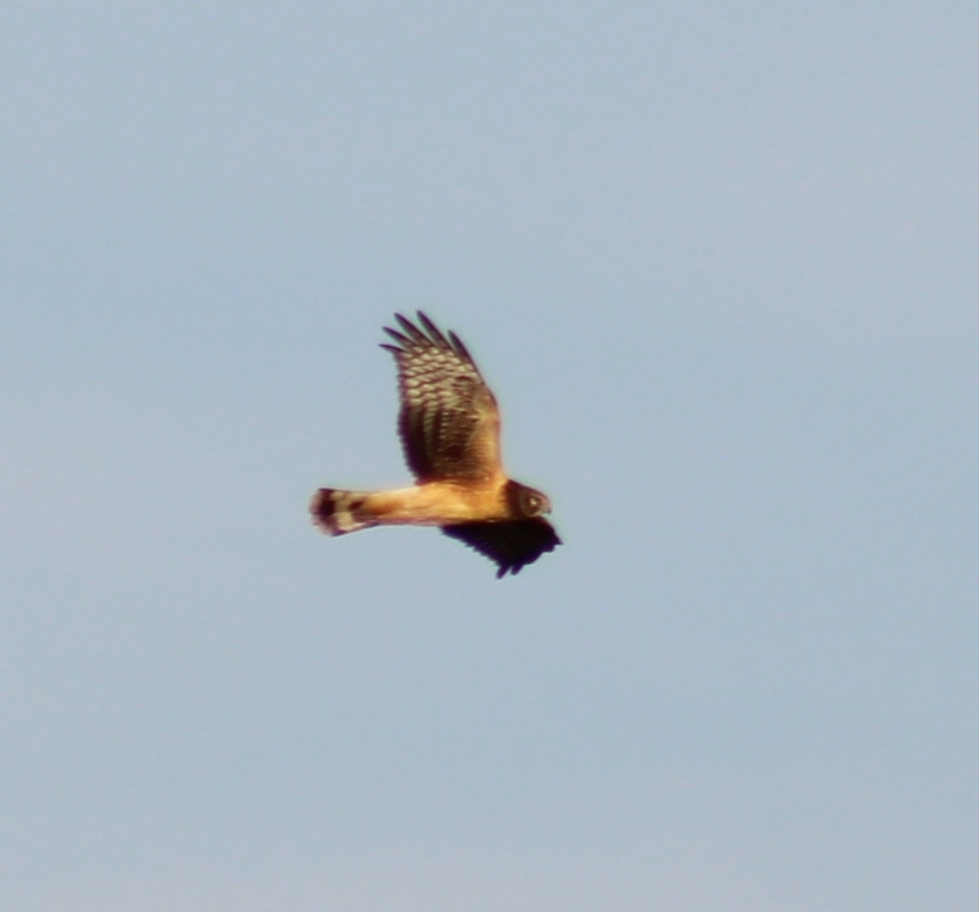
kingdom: Animalia
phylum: Chordata
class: Aves
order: Accipitriformes
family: Accipitridae
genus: Circus
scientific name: Circus cyaneus
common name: Hen harrier
